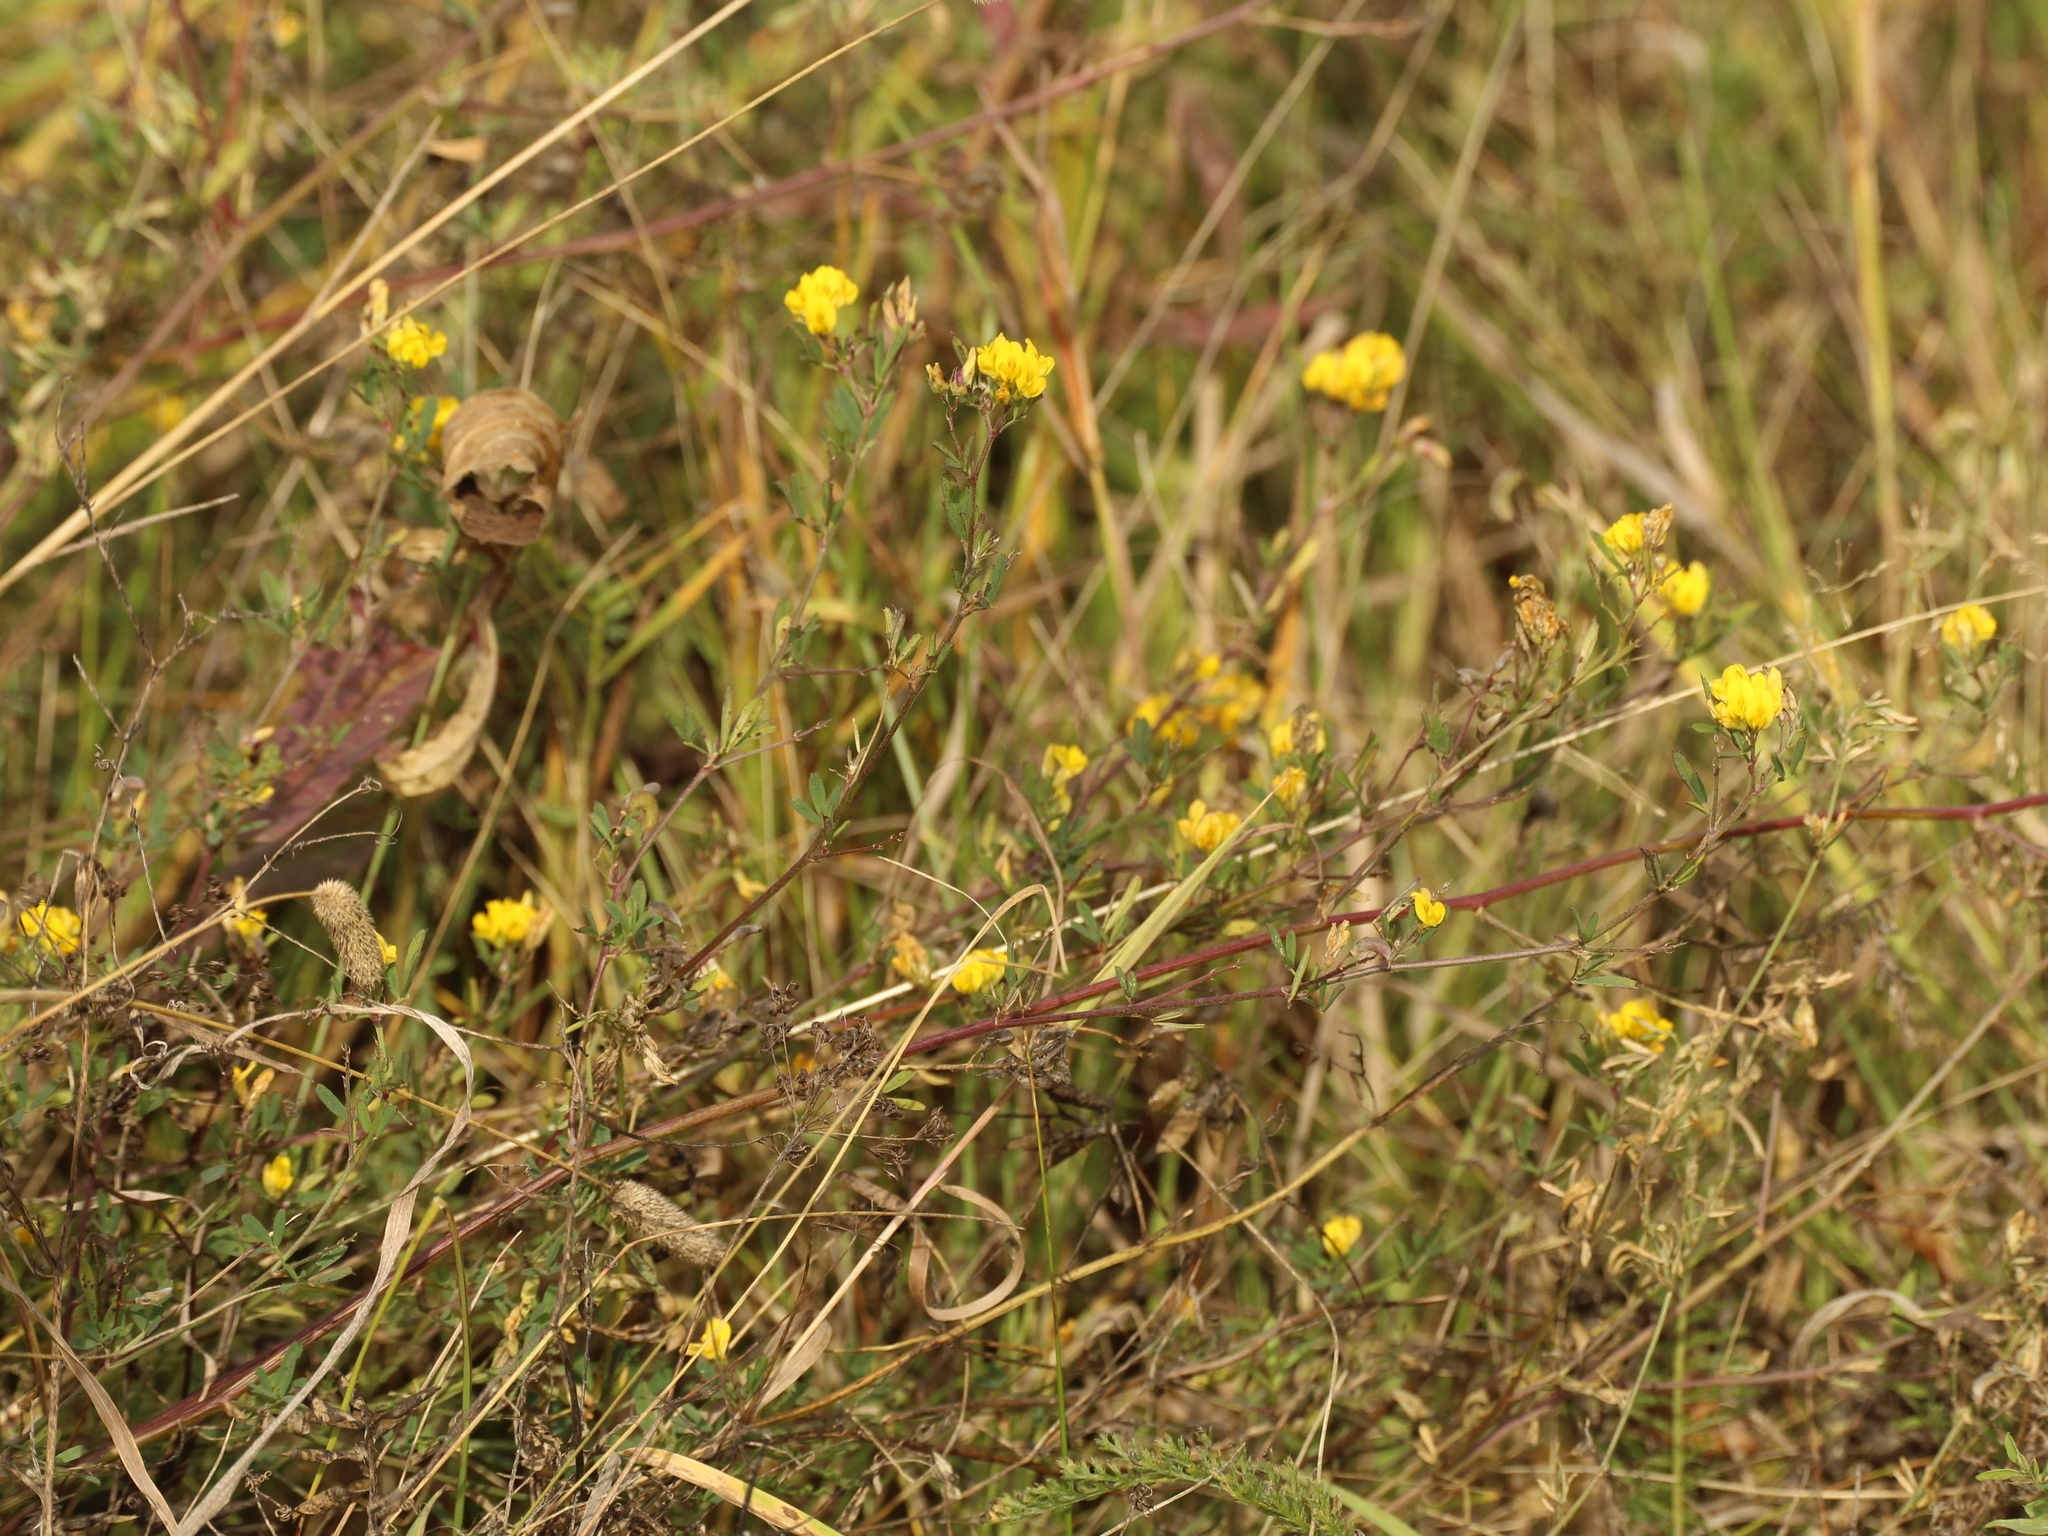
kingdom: Plantae
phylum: Tracheophyta
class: Magnoliopsida
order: Fabales
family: Fabaceae
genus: Medicago
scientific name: Medicago falcata
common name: Sickle medick
